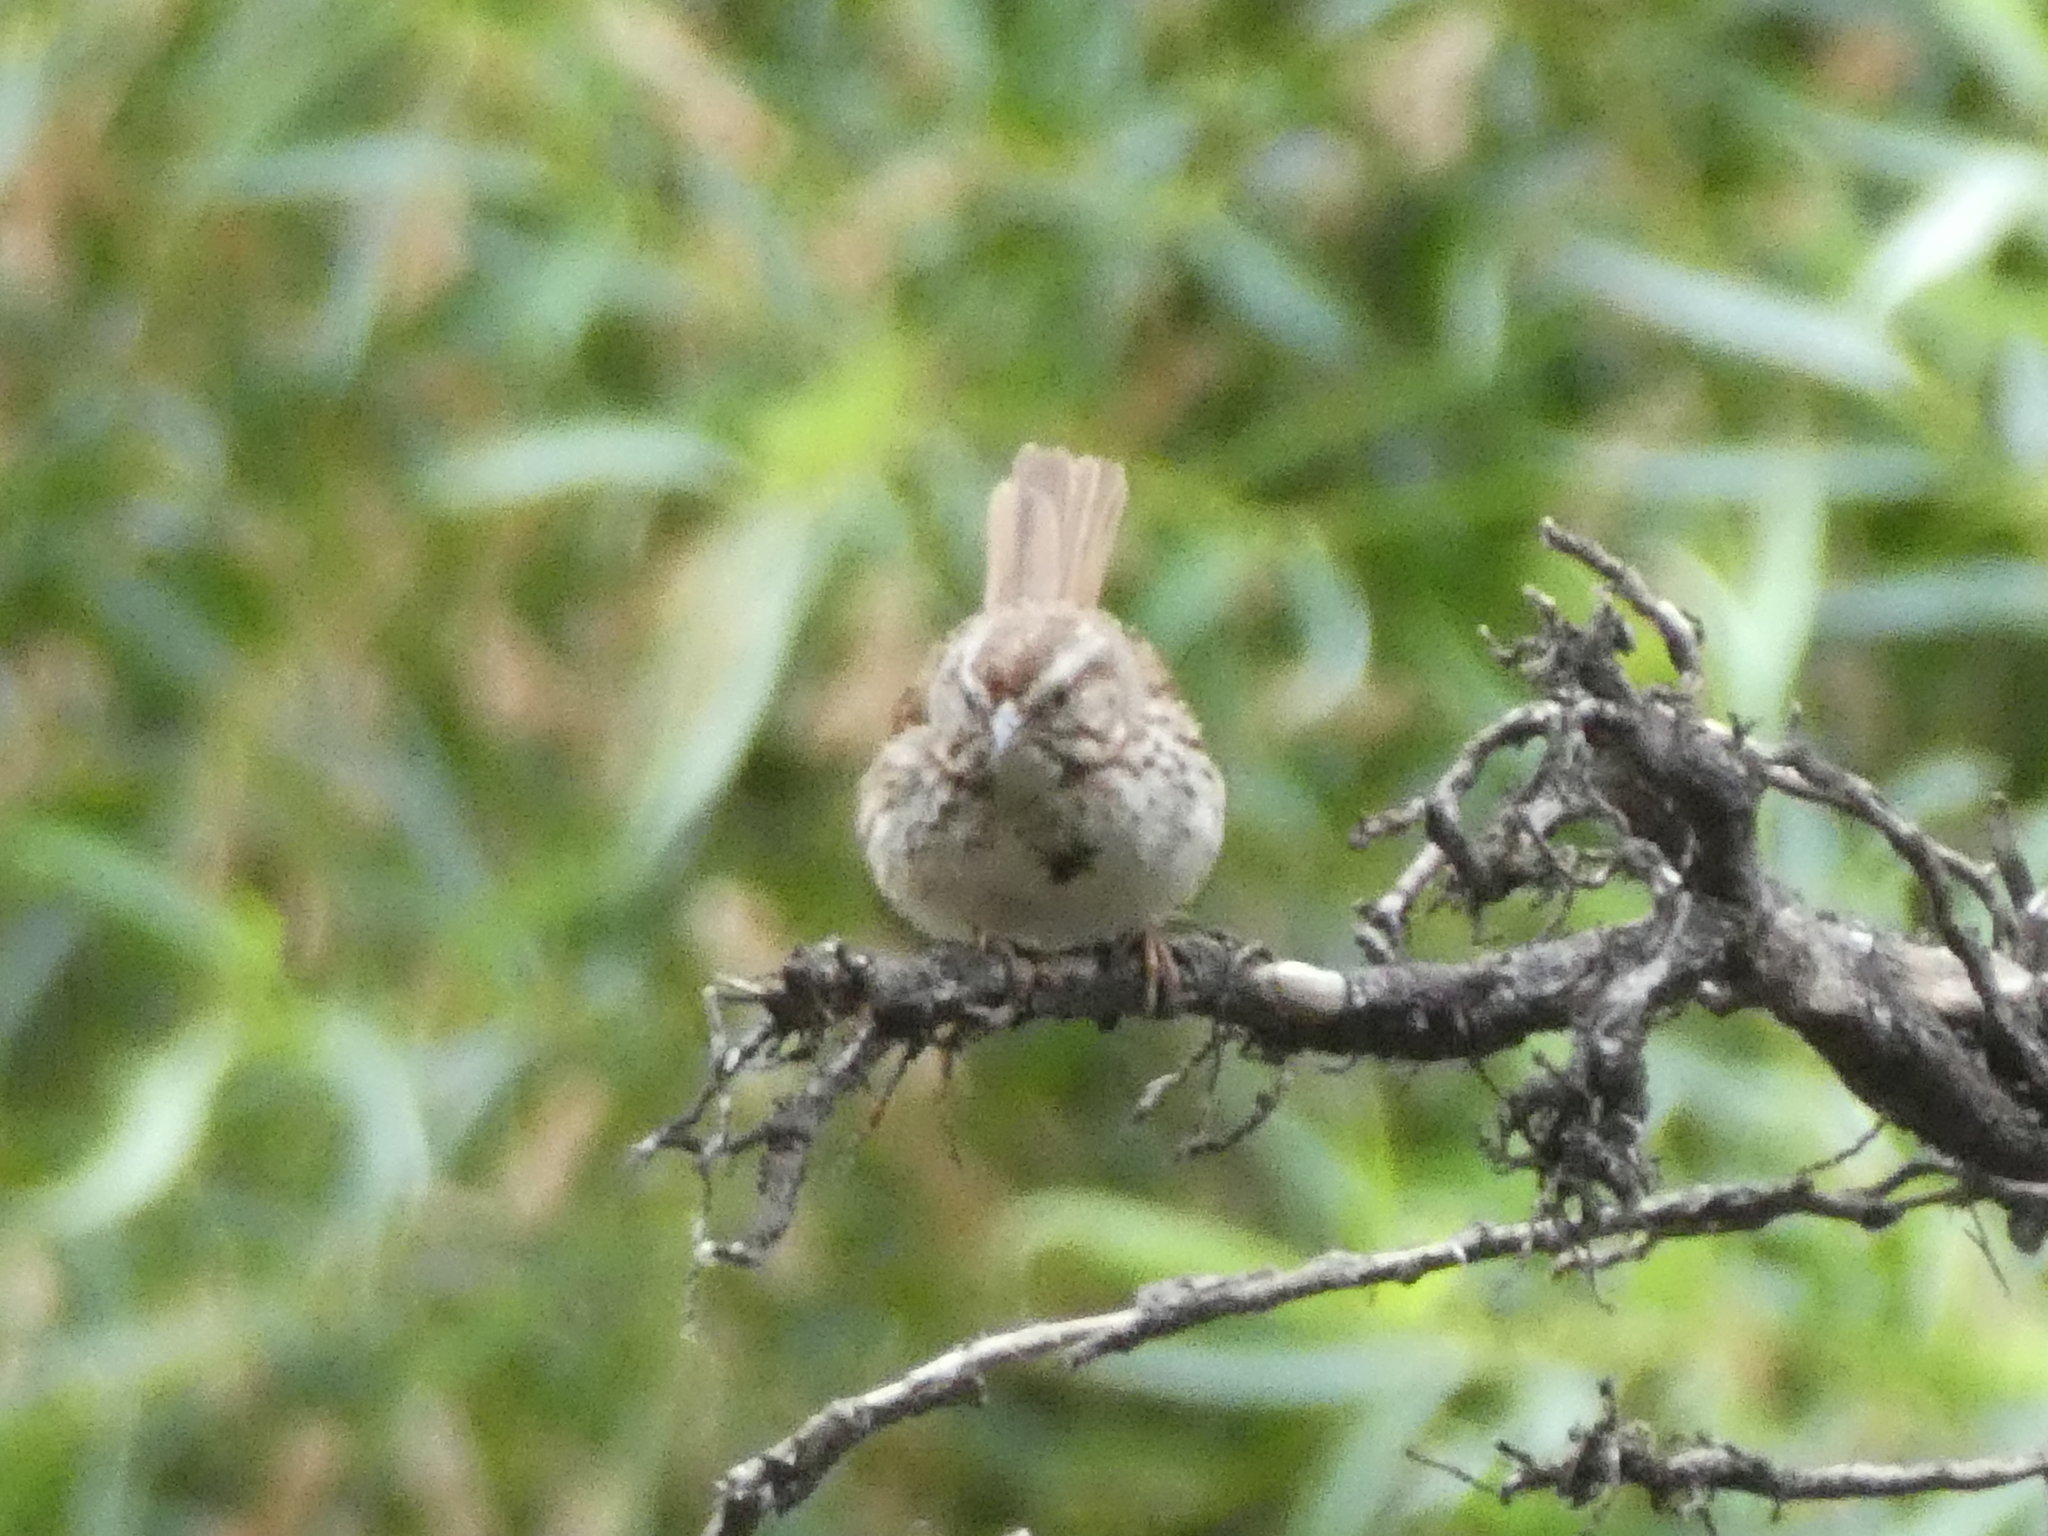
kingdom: Animalia
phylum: Chordata
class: Aves
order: Passeriformes
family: Passerellidae
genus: Melospiza
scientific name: Melospiza melodia
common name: Song sparrow
